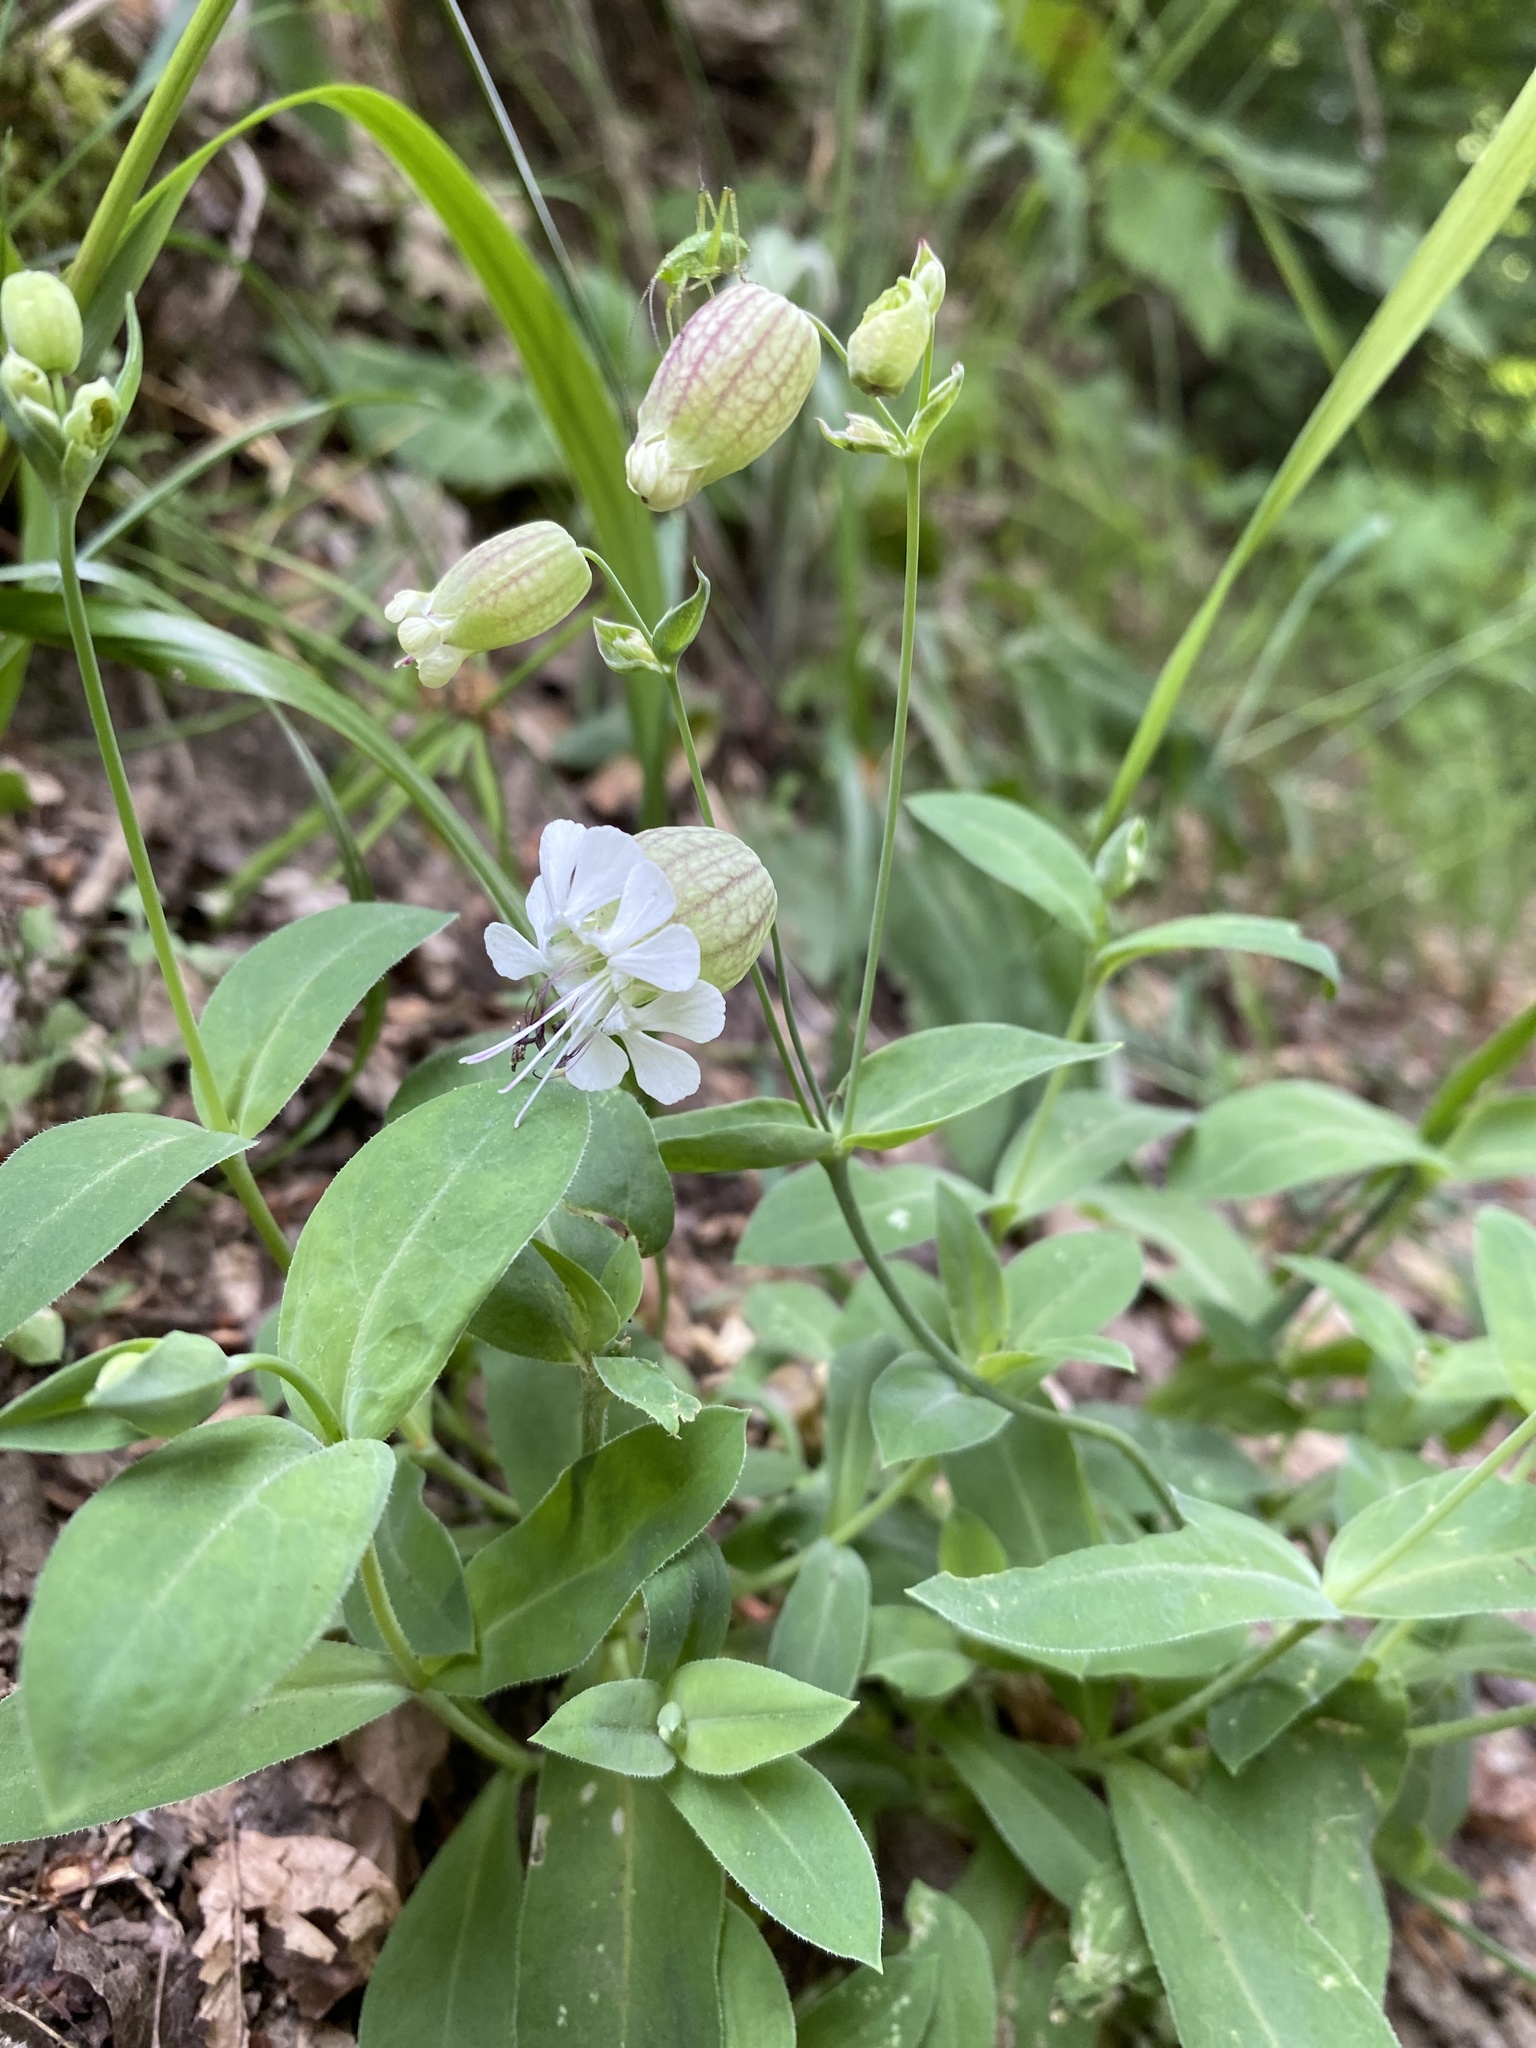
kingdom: Plantae
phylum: Tracheophyta
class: Magnoliopsida
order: Caryophyllales
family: Caryophyllaceae
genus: Silene
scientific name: Silene vulgaris
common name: Bladder campion
